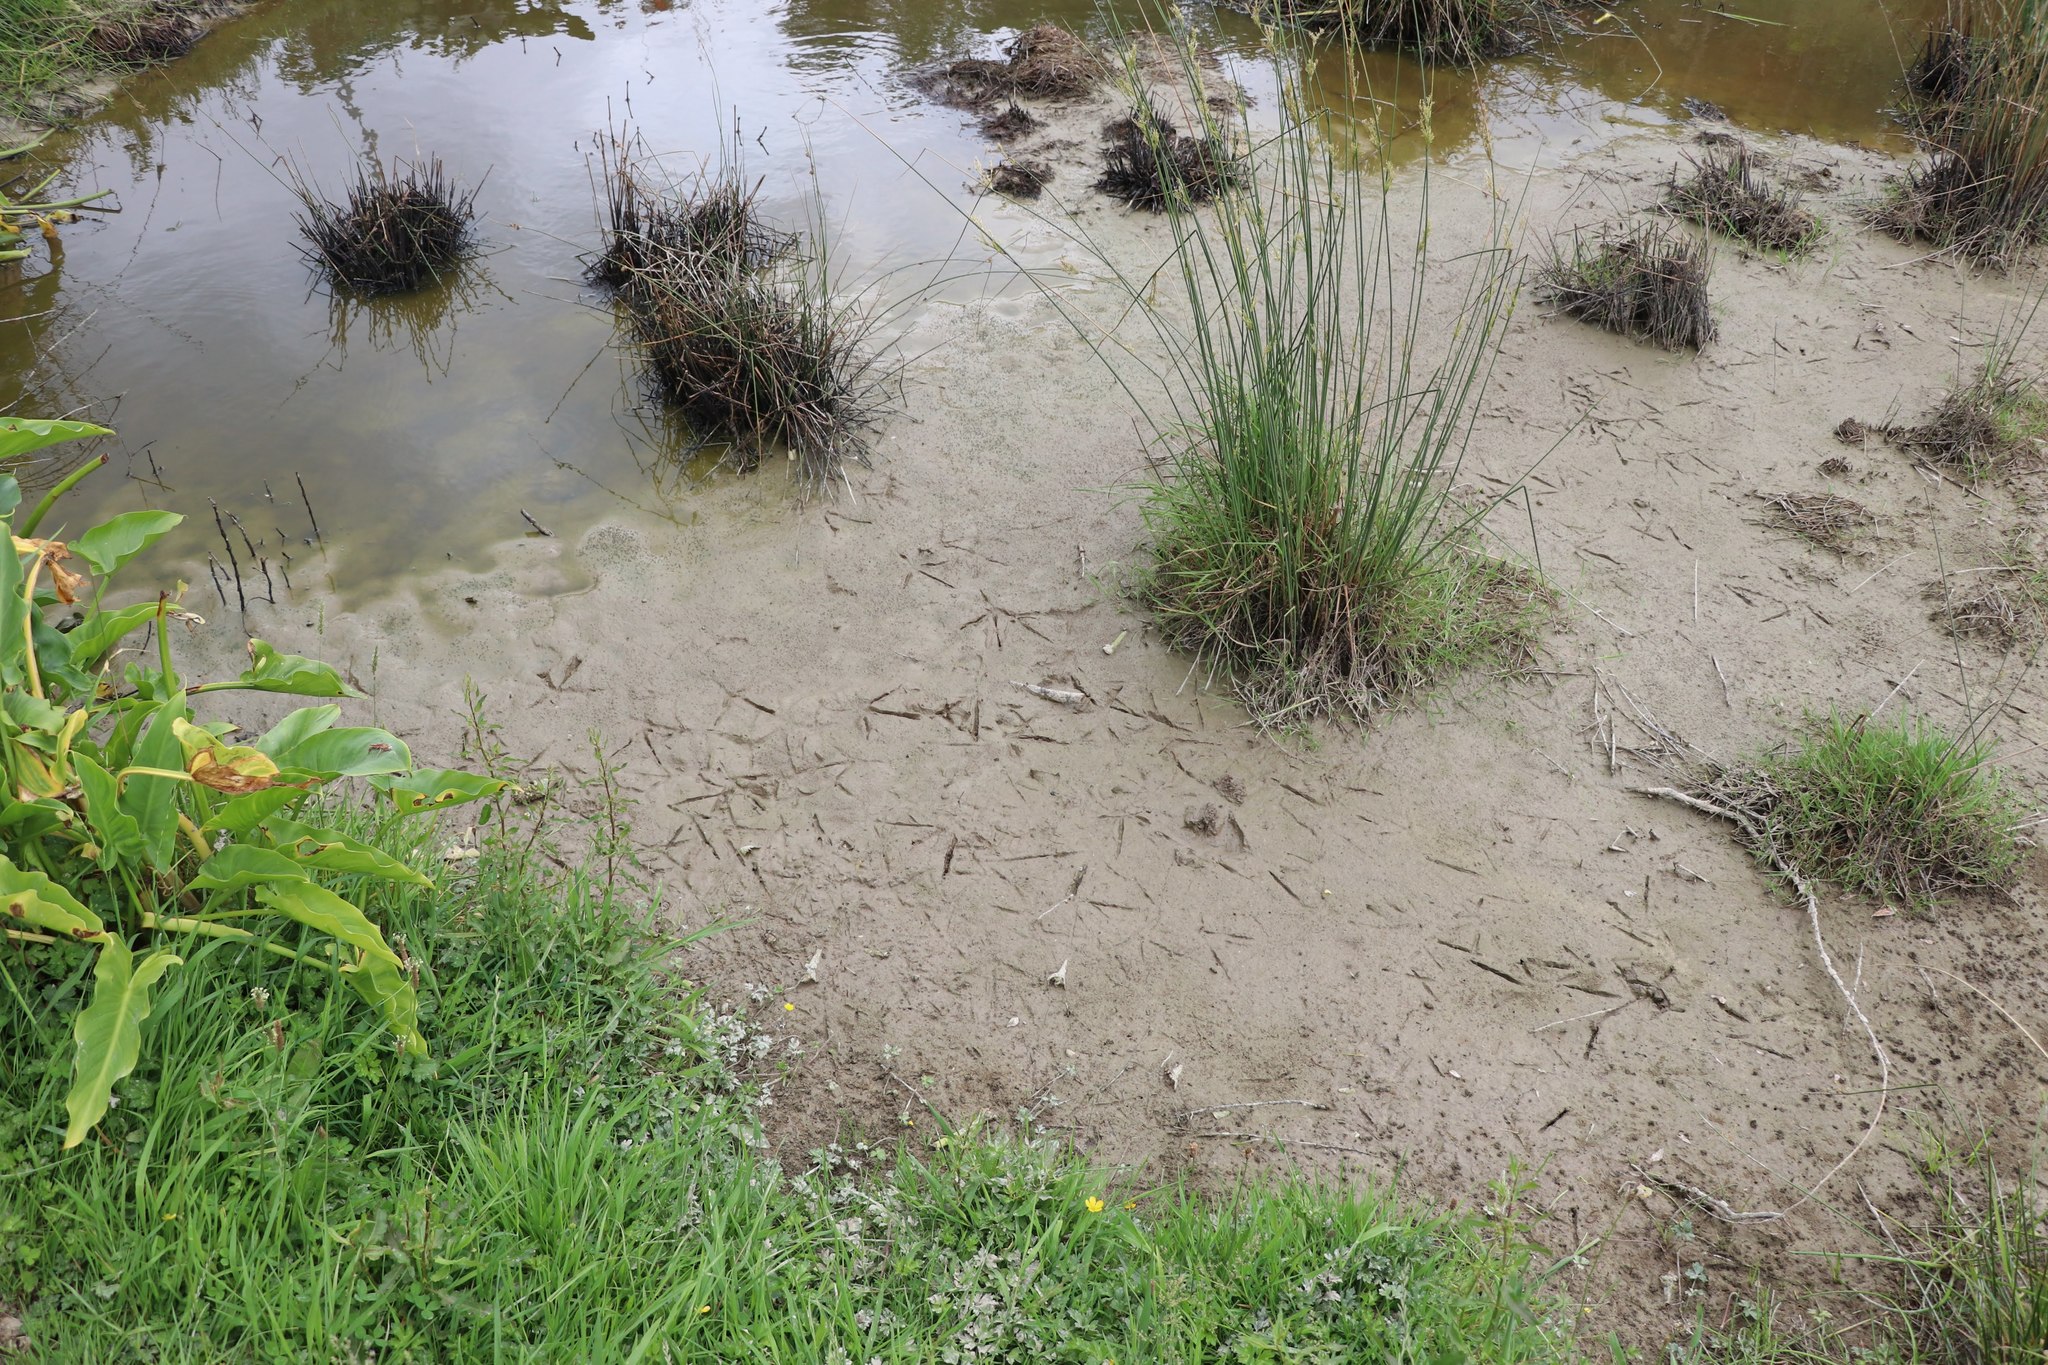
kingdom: Animalia
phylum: Chordata
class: Aves
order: Pelecaniformes
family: Ardeidae
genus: Egretta
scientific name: Egretta novaehollandiae
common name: White-faced heron
